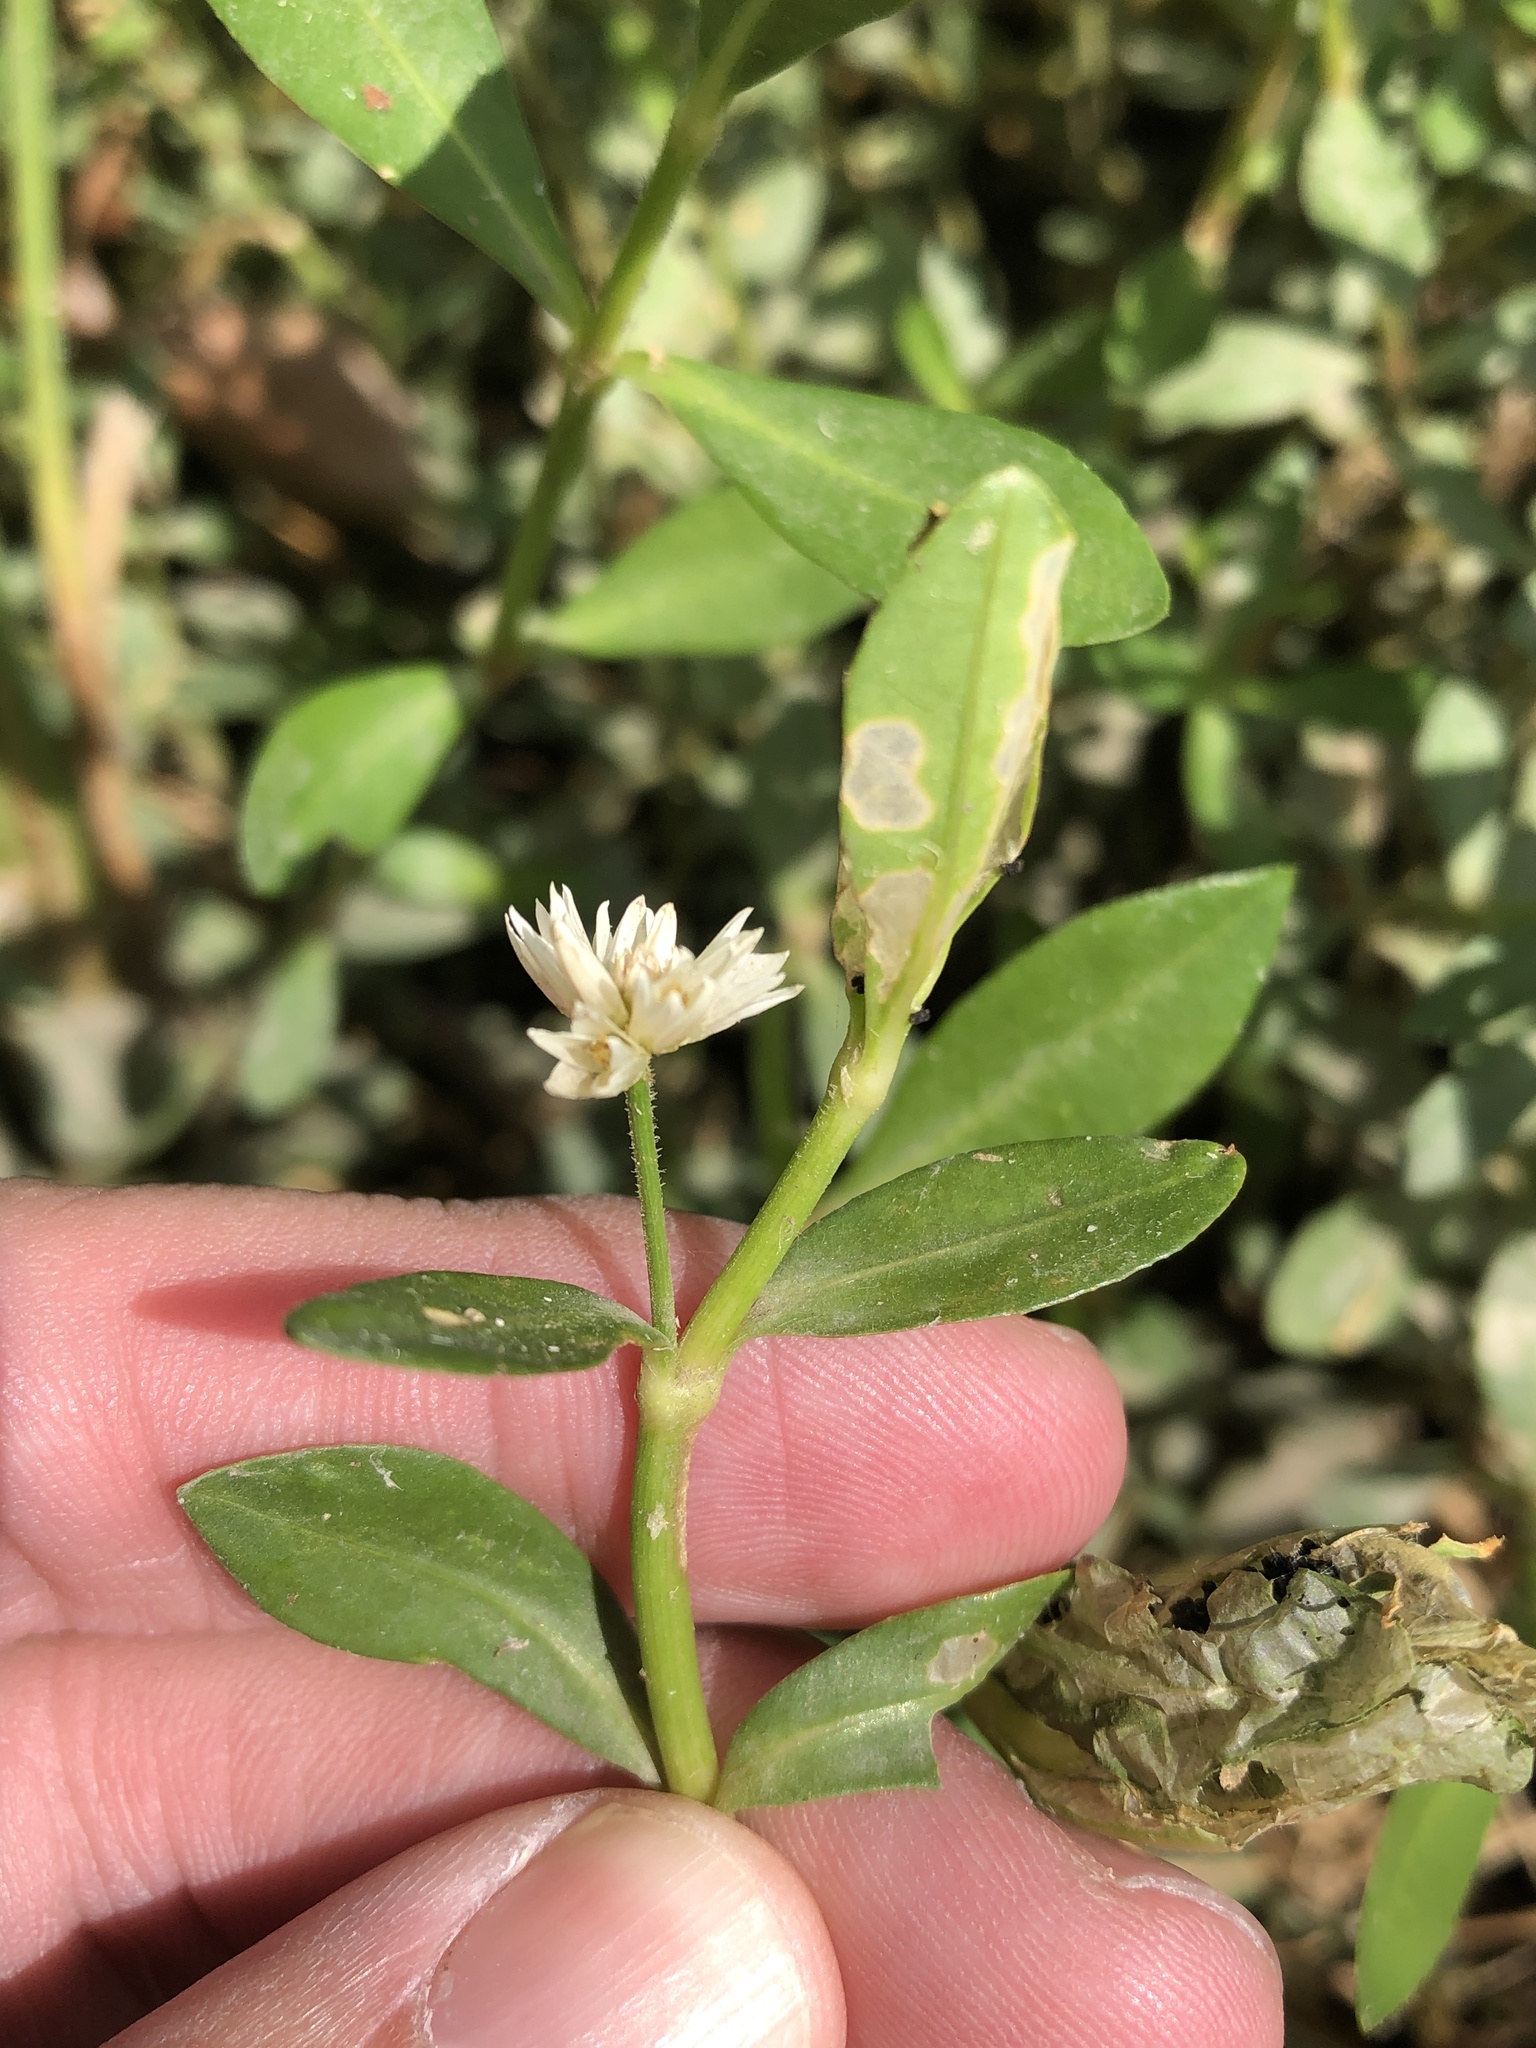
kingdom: Plantae
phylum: Tracheophyta
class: Magnoliopsida
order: Caryophyllales
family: Amaranthaceae
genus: Alternanthera
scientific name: Alternanthera philoxeroides
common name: Alligatorweed
